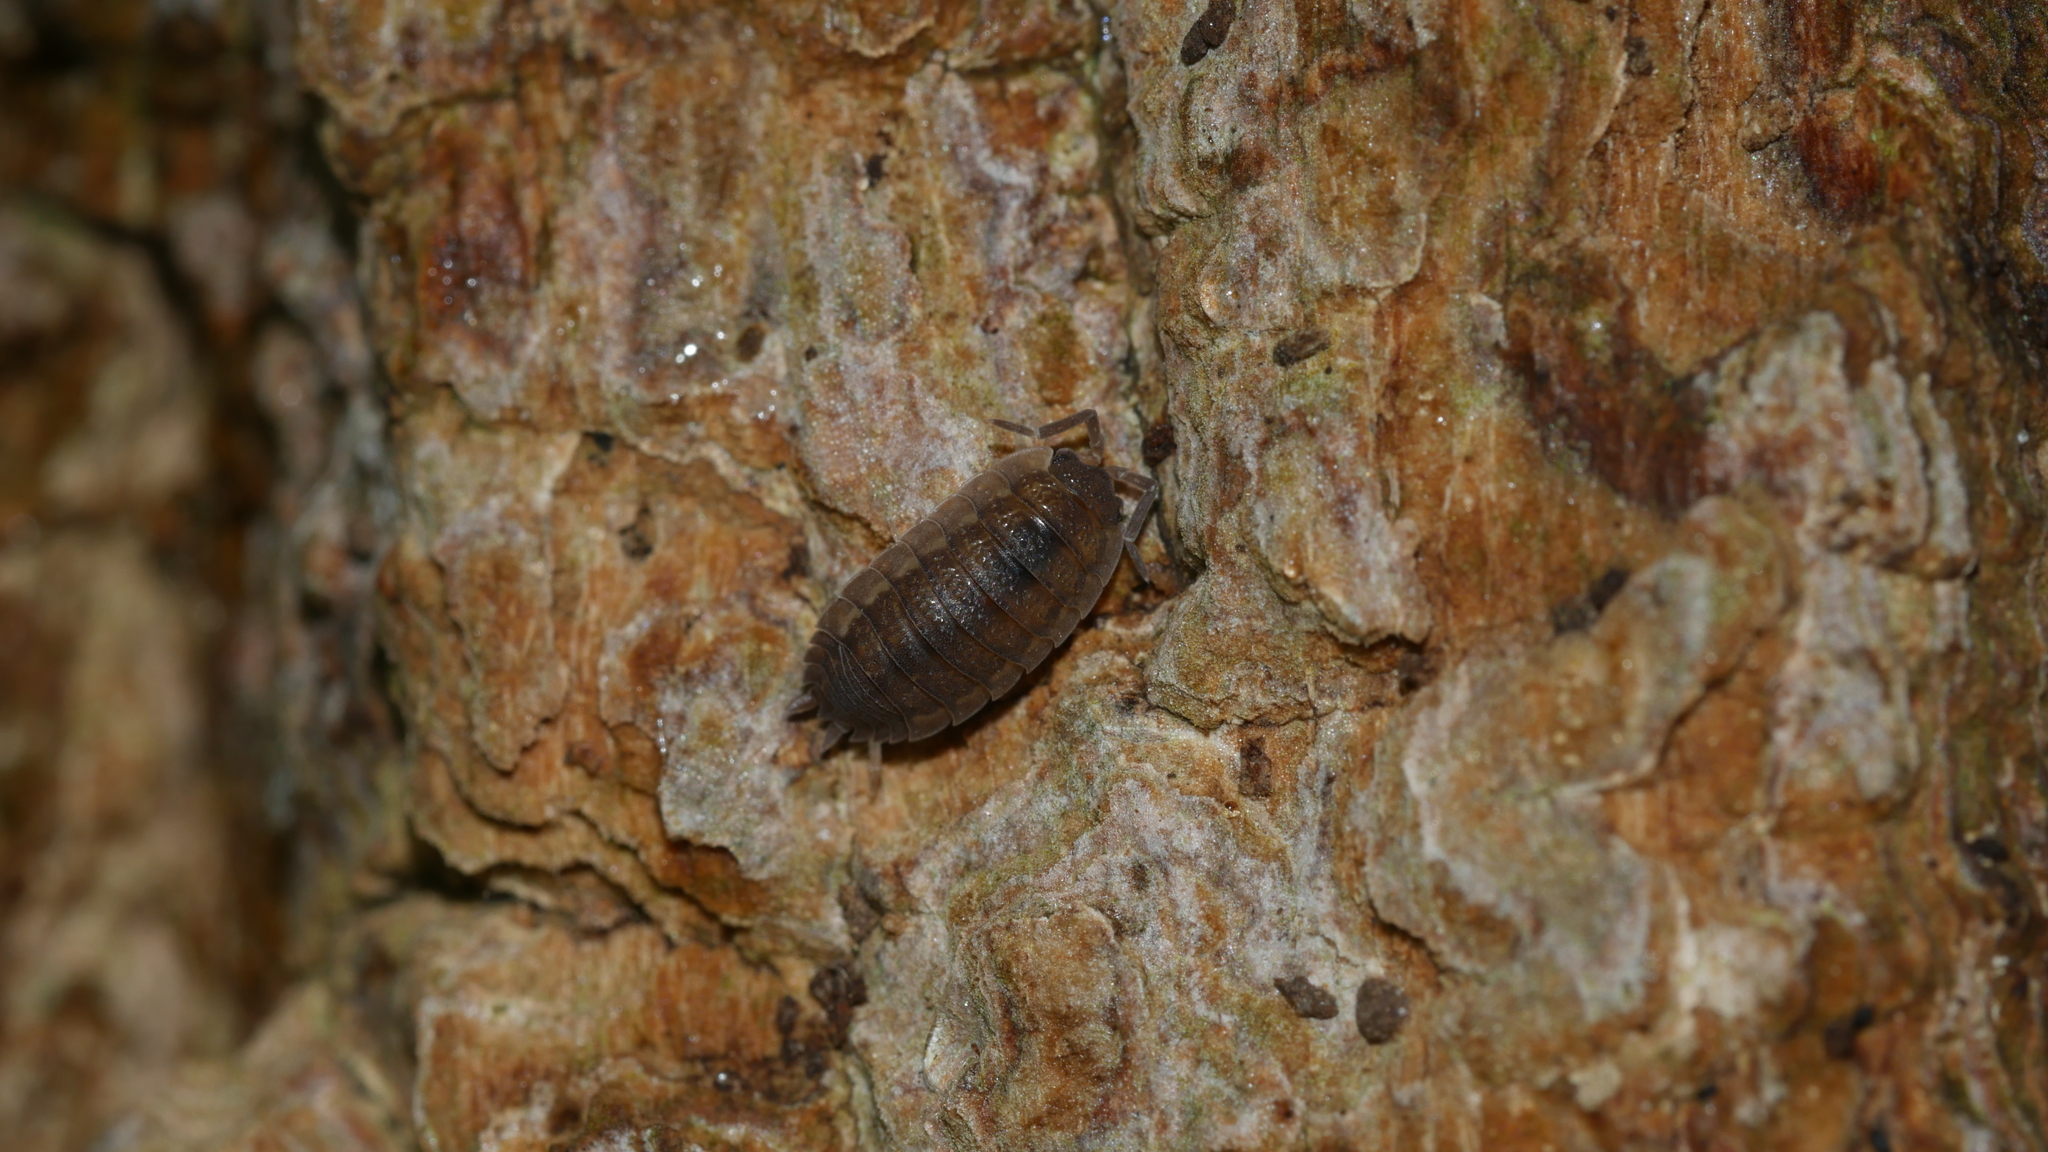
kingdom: Animalia
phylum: Arthropoda
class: Malacostraca
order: Isopoda
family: Porcellionidae
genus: Porcellio
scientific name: Porcellio scaber
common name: Common rough woodlouse
